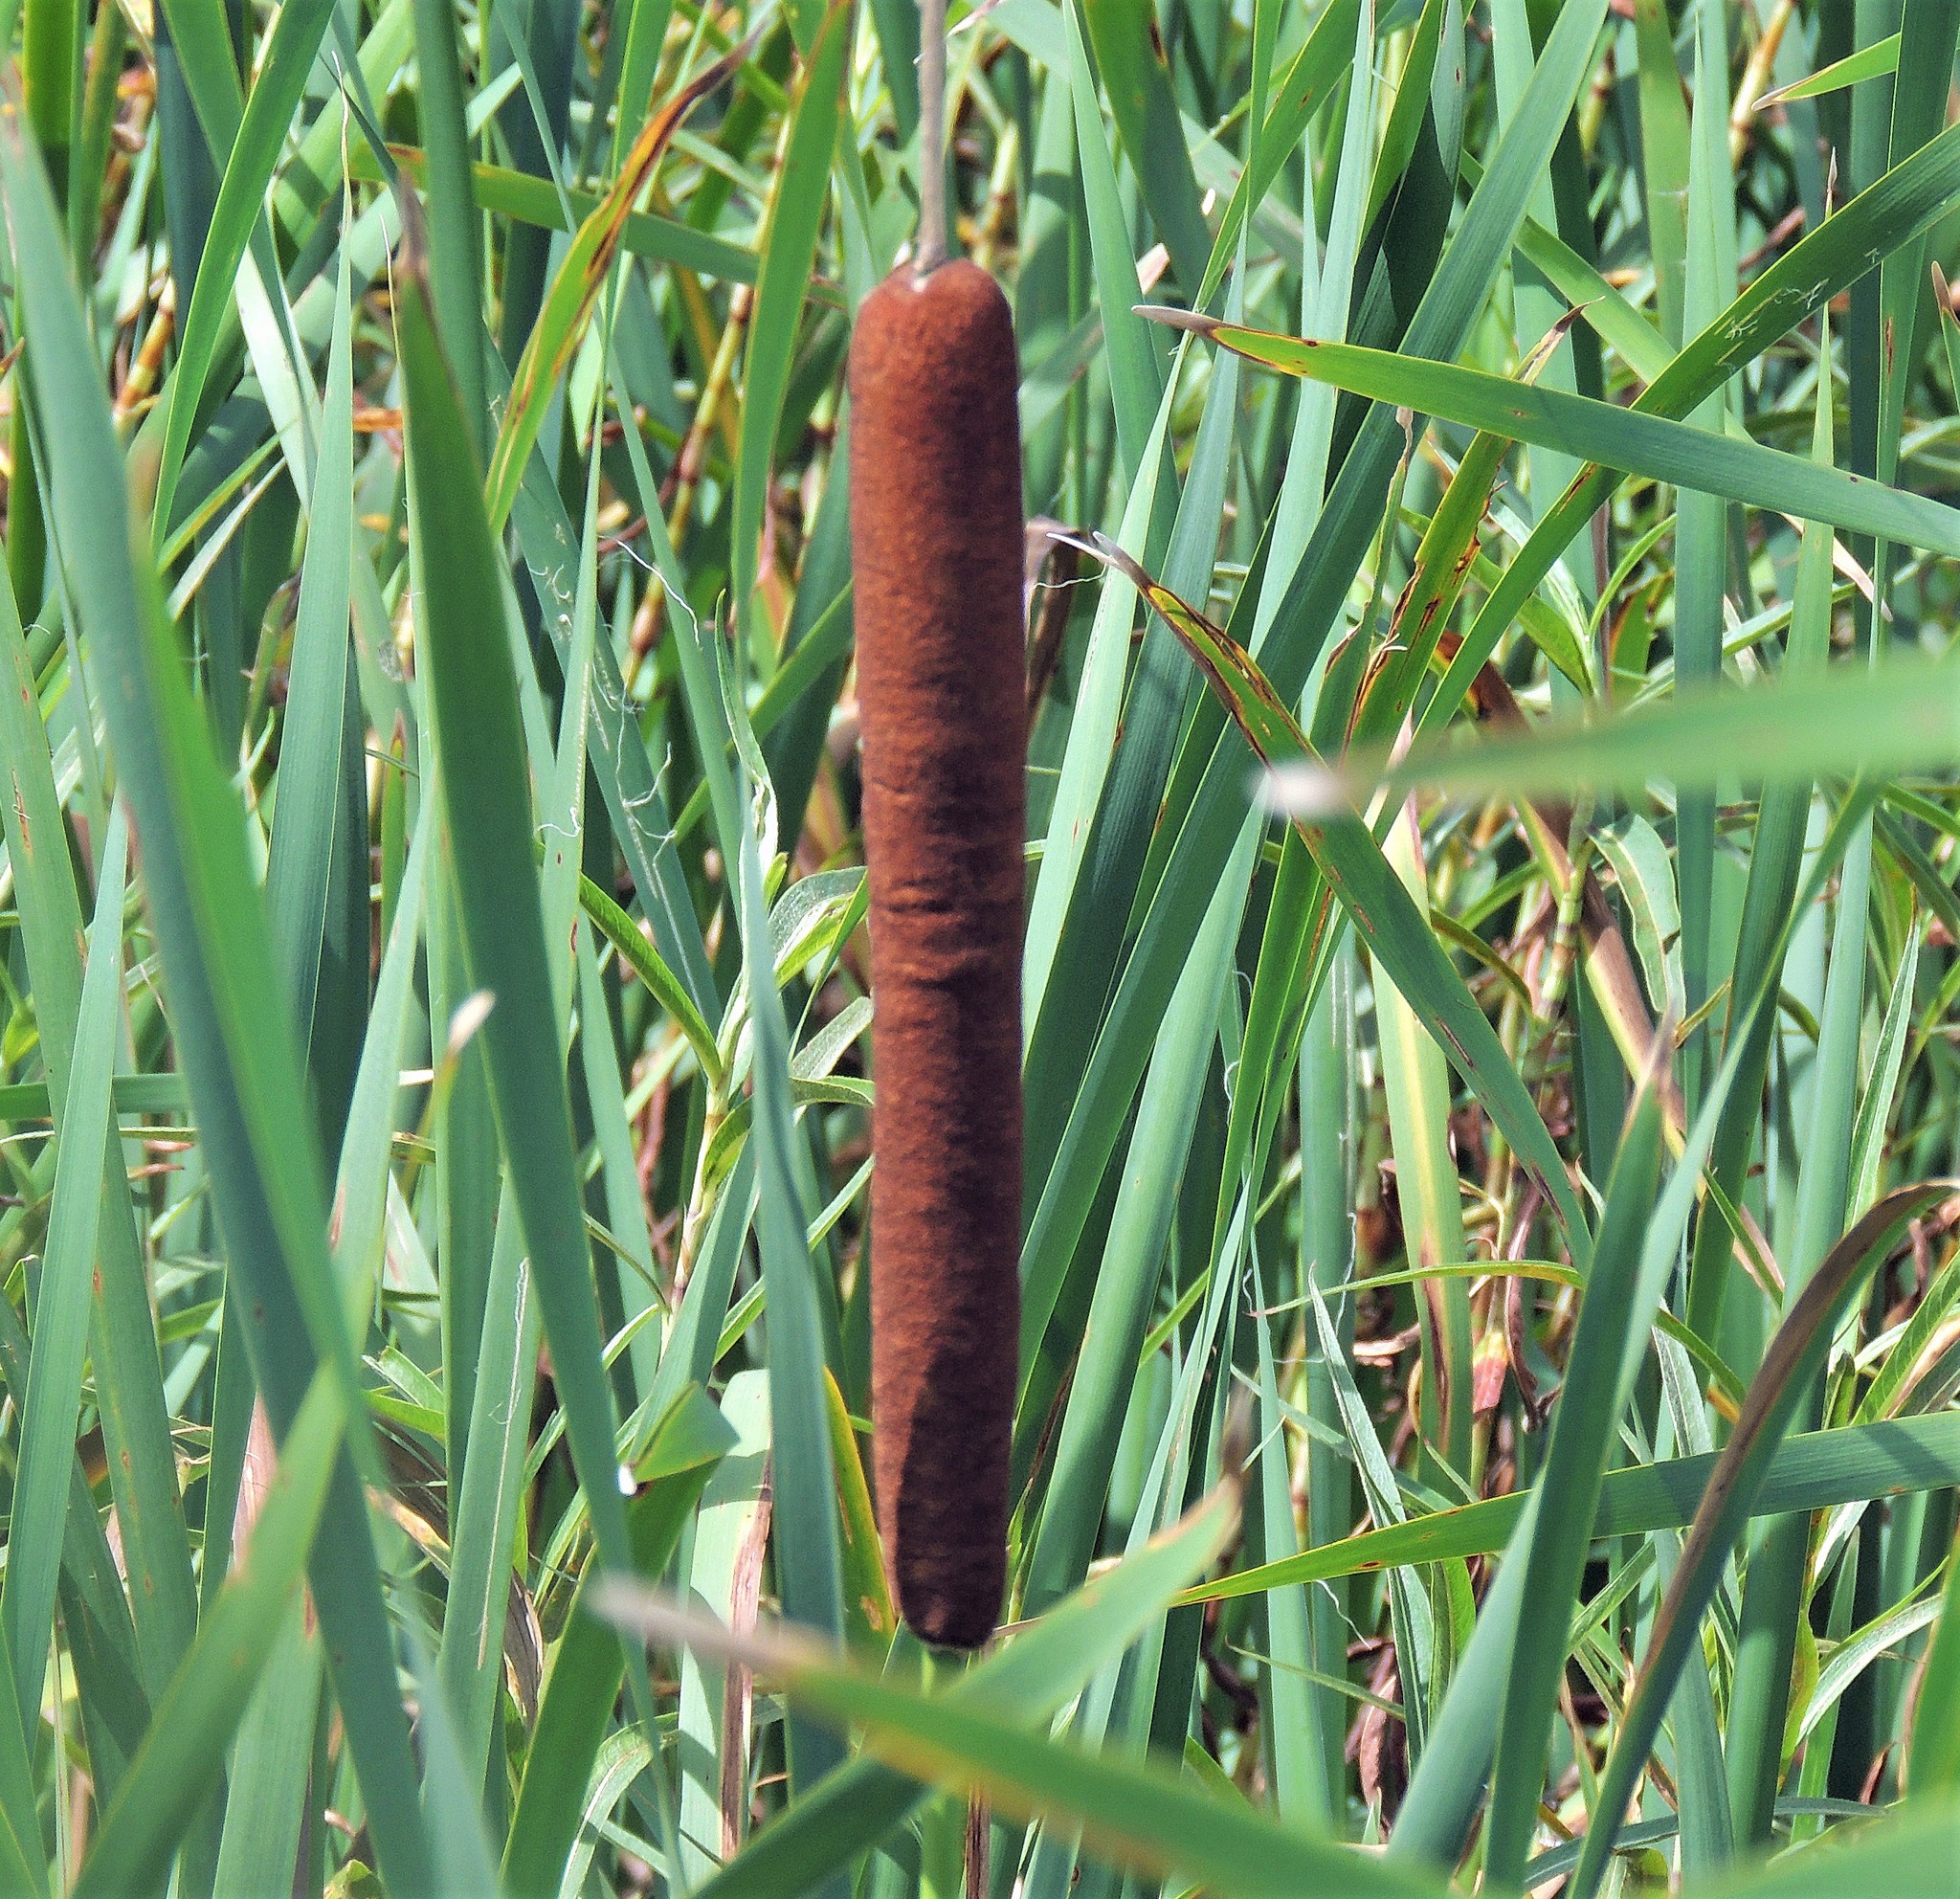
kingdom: Plantae
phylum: Tracheophyta
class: Liliopsida
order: Poales
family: Typhaceae
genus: Typha
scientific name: Typha latifolia
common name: Broadleaf cattail
